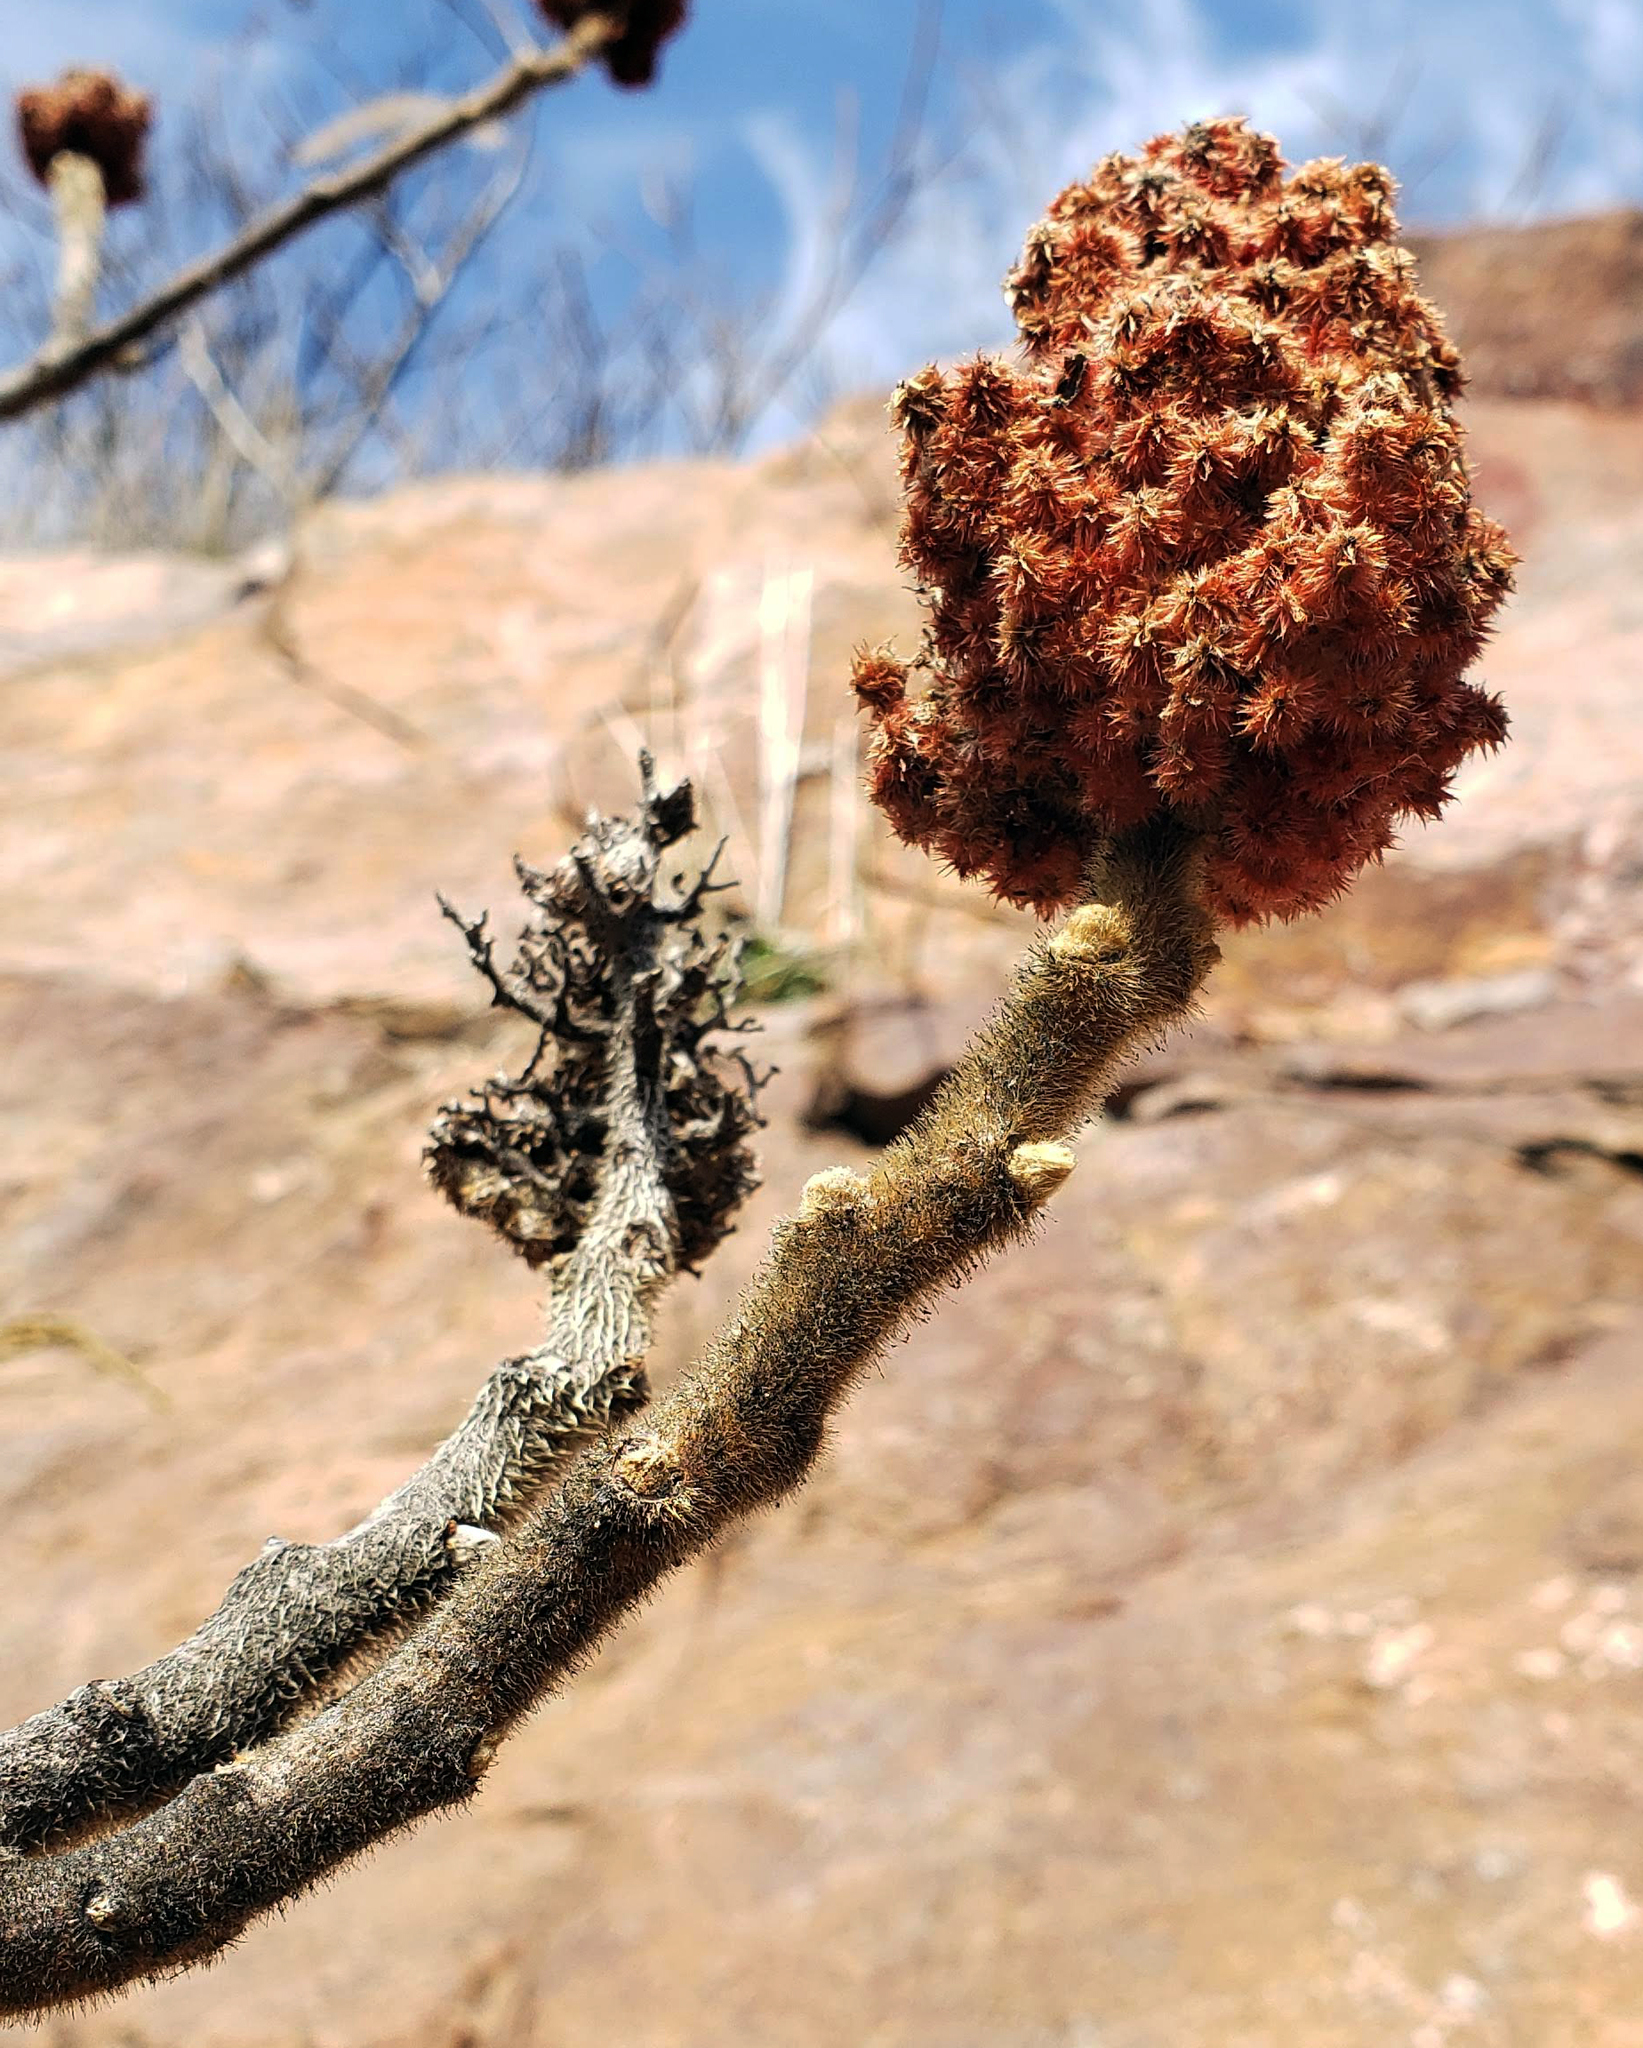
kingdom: Plantae
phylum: Tracheophyta
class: Magnoliopsida
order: Sapindales
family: Anacardiaceae
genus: Rhus
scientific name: Rhus typhina
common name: Staghorn sumac
